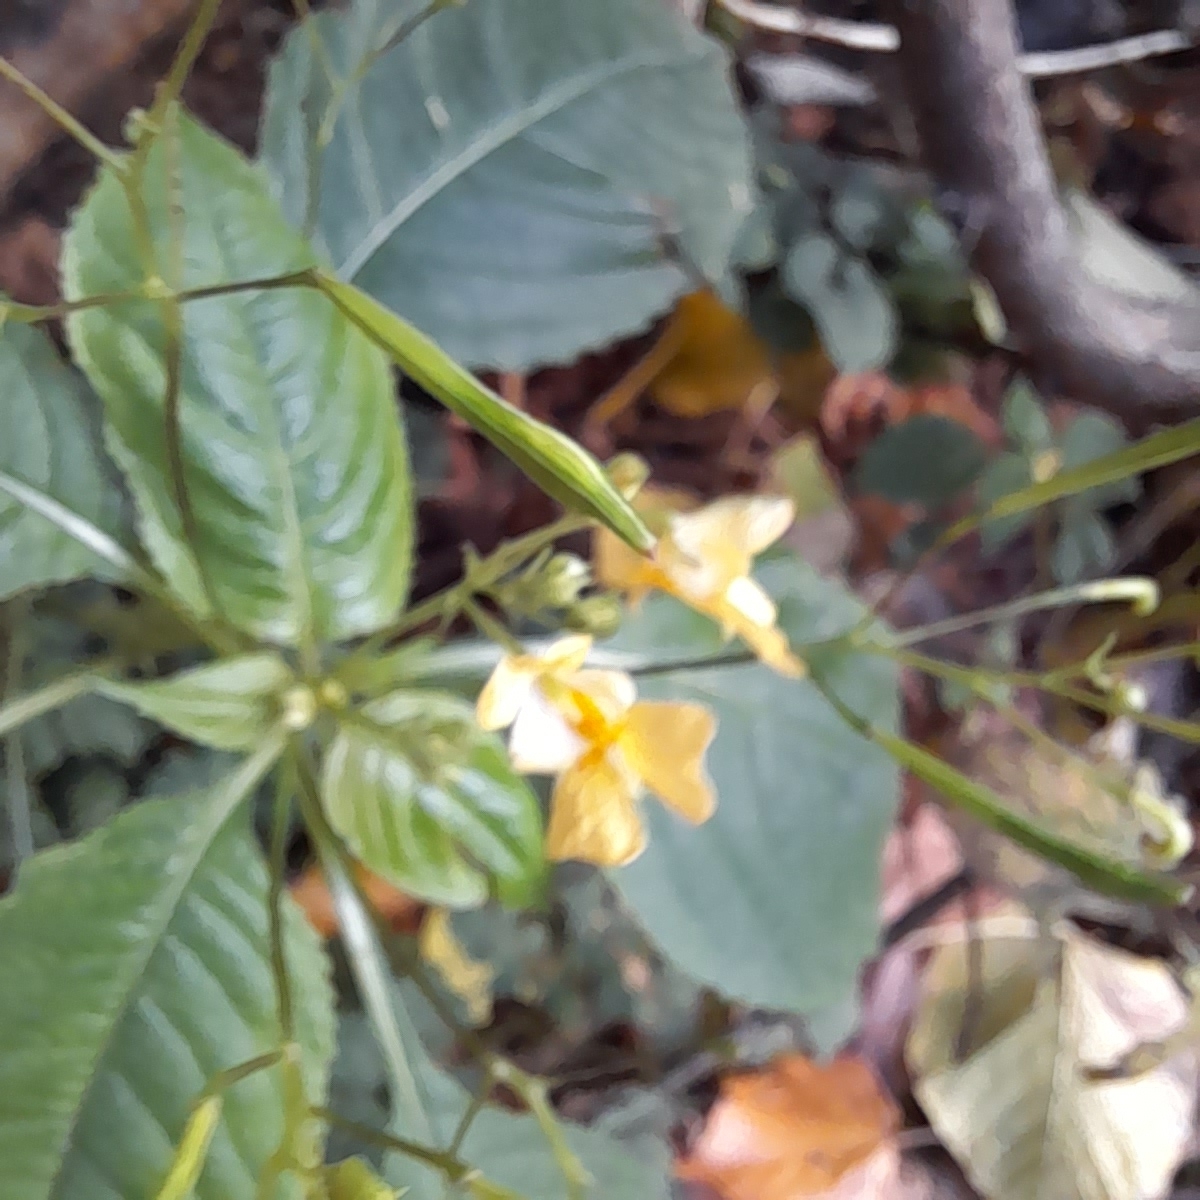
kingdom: Plantae
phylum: Tracheophyta
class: Magnoliopsida
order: Ericales
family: Balsaminaceae
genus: Impatiens
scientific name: Impatiens parviflora
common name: Small balsam
